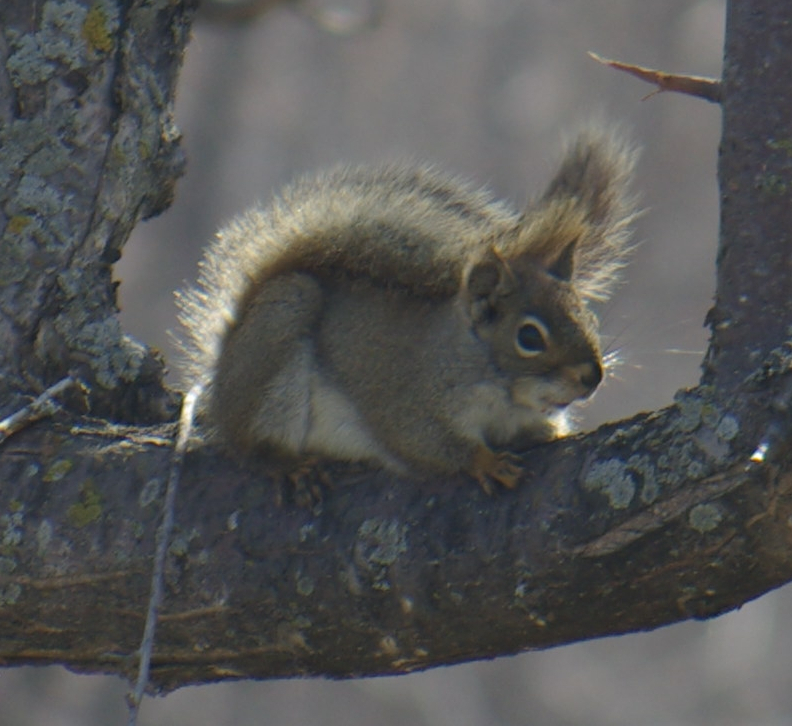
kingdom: Animalia
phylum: Chordata
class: Mammalia
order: Rodentia
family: Sciuridae
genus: Tamiasciurus
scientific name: Tamiasciurus hudsonicus
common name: Red squirrel
